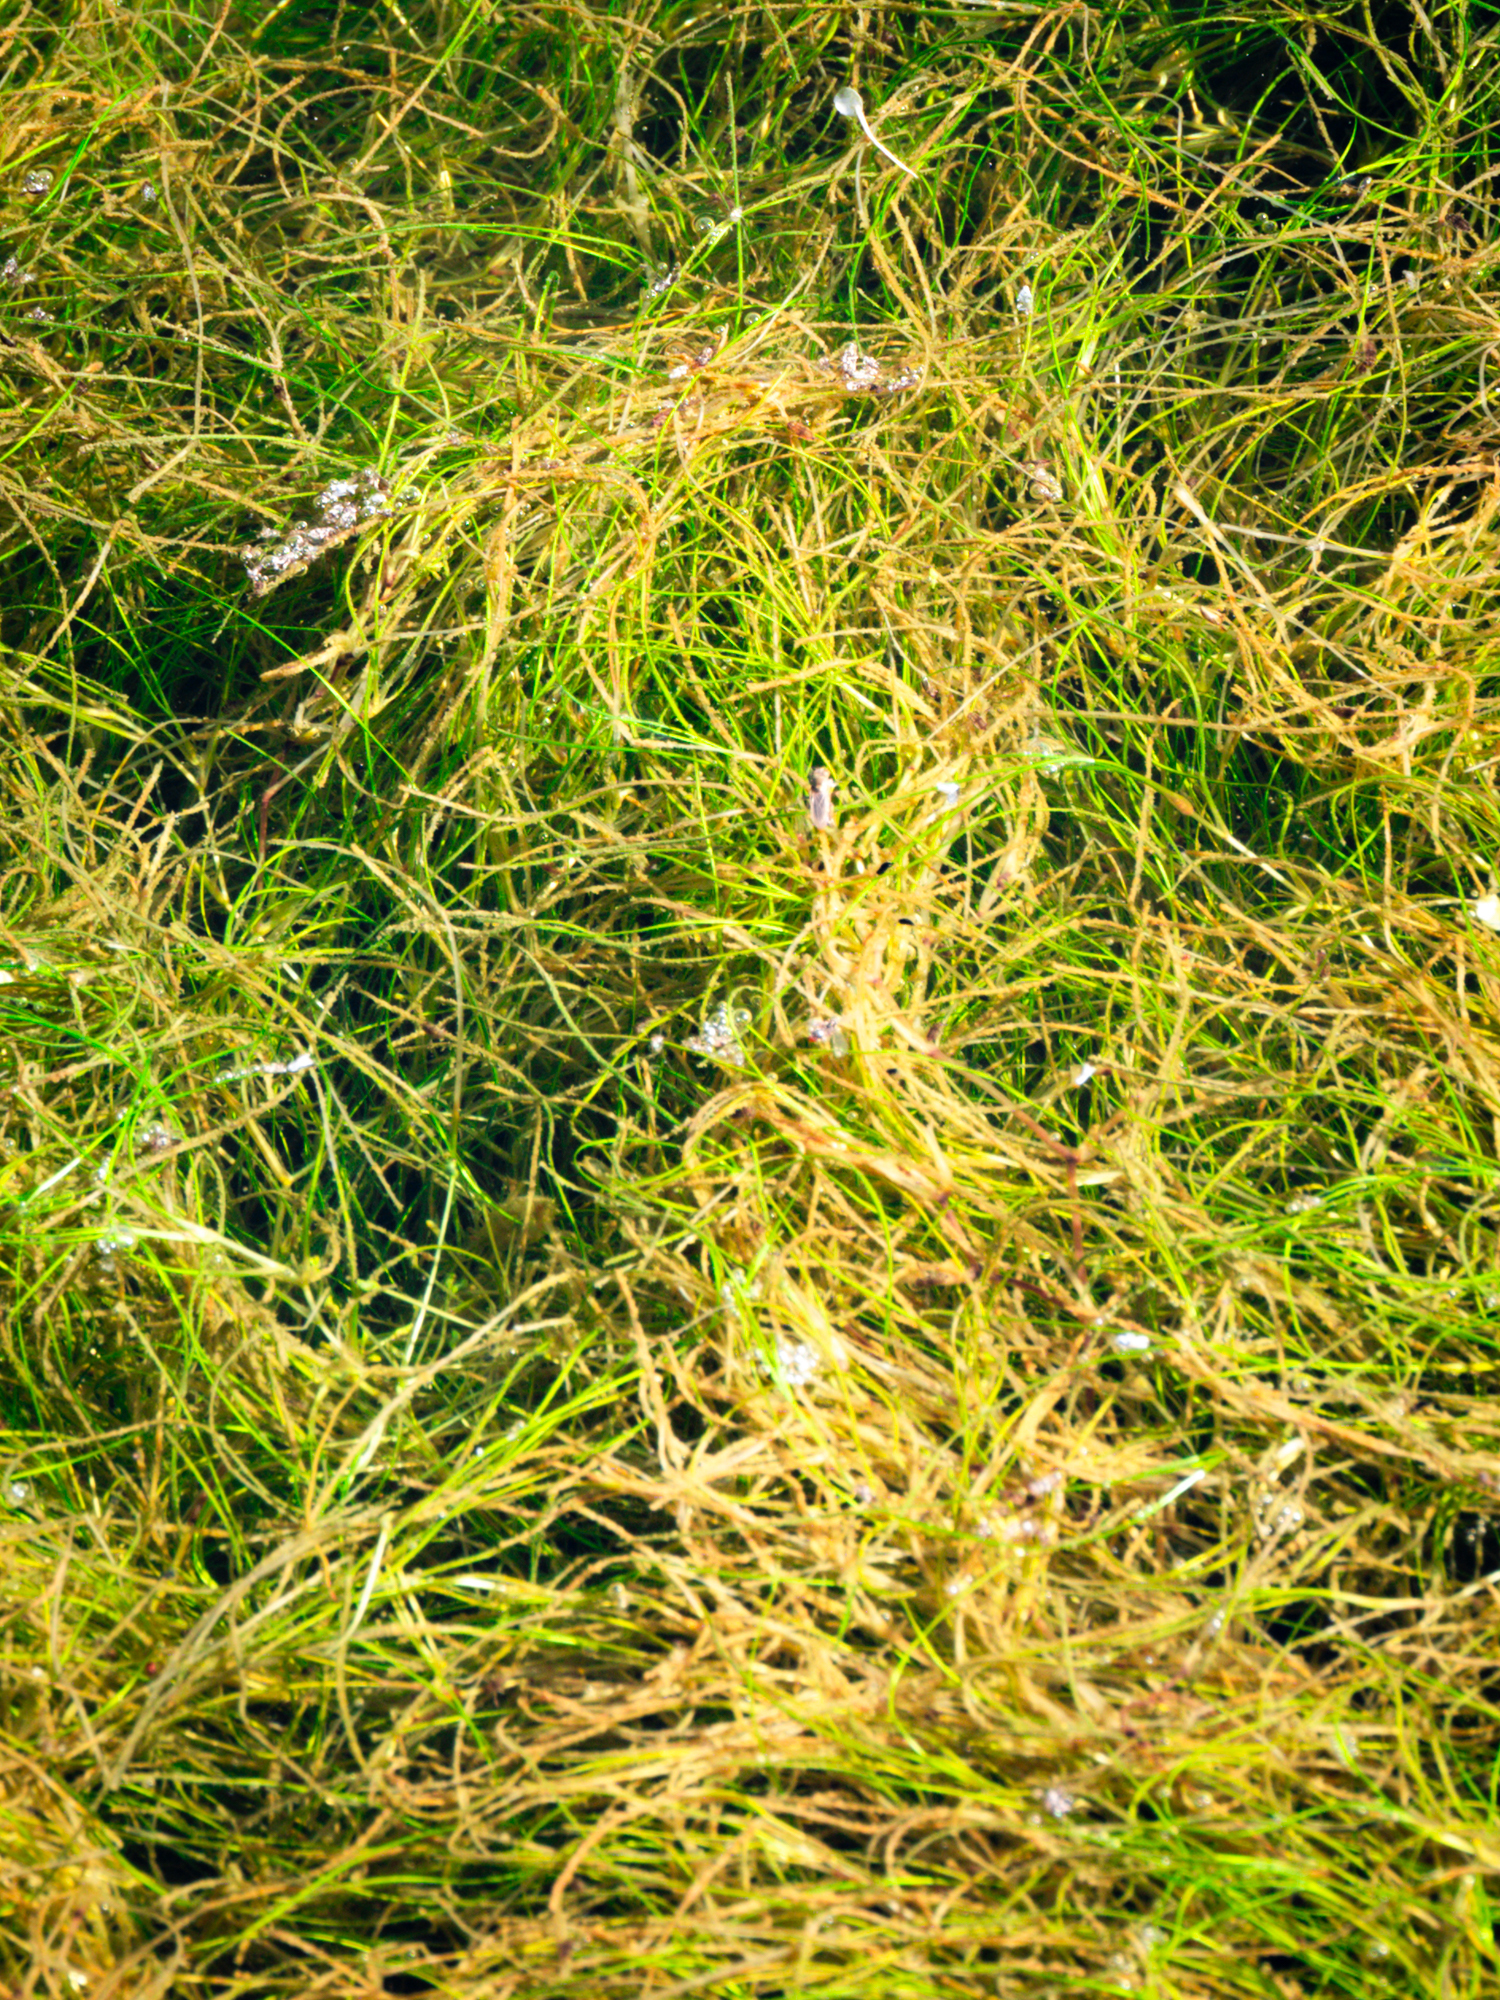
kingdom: Plantae
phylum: Tracheophyta
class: Liliopsida
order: Alismatales
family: Ruppiaceae
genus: Ruppia
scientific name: Ruppia maritima
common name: Beaked tasselweed
